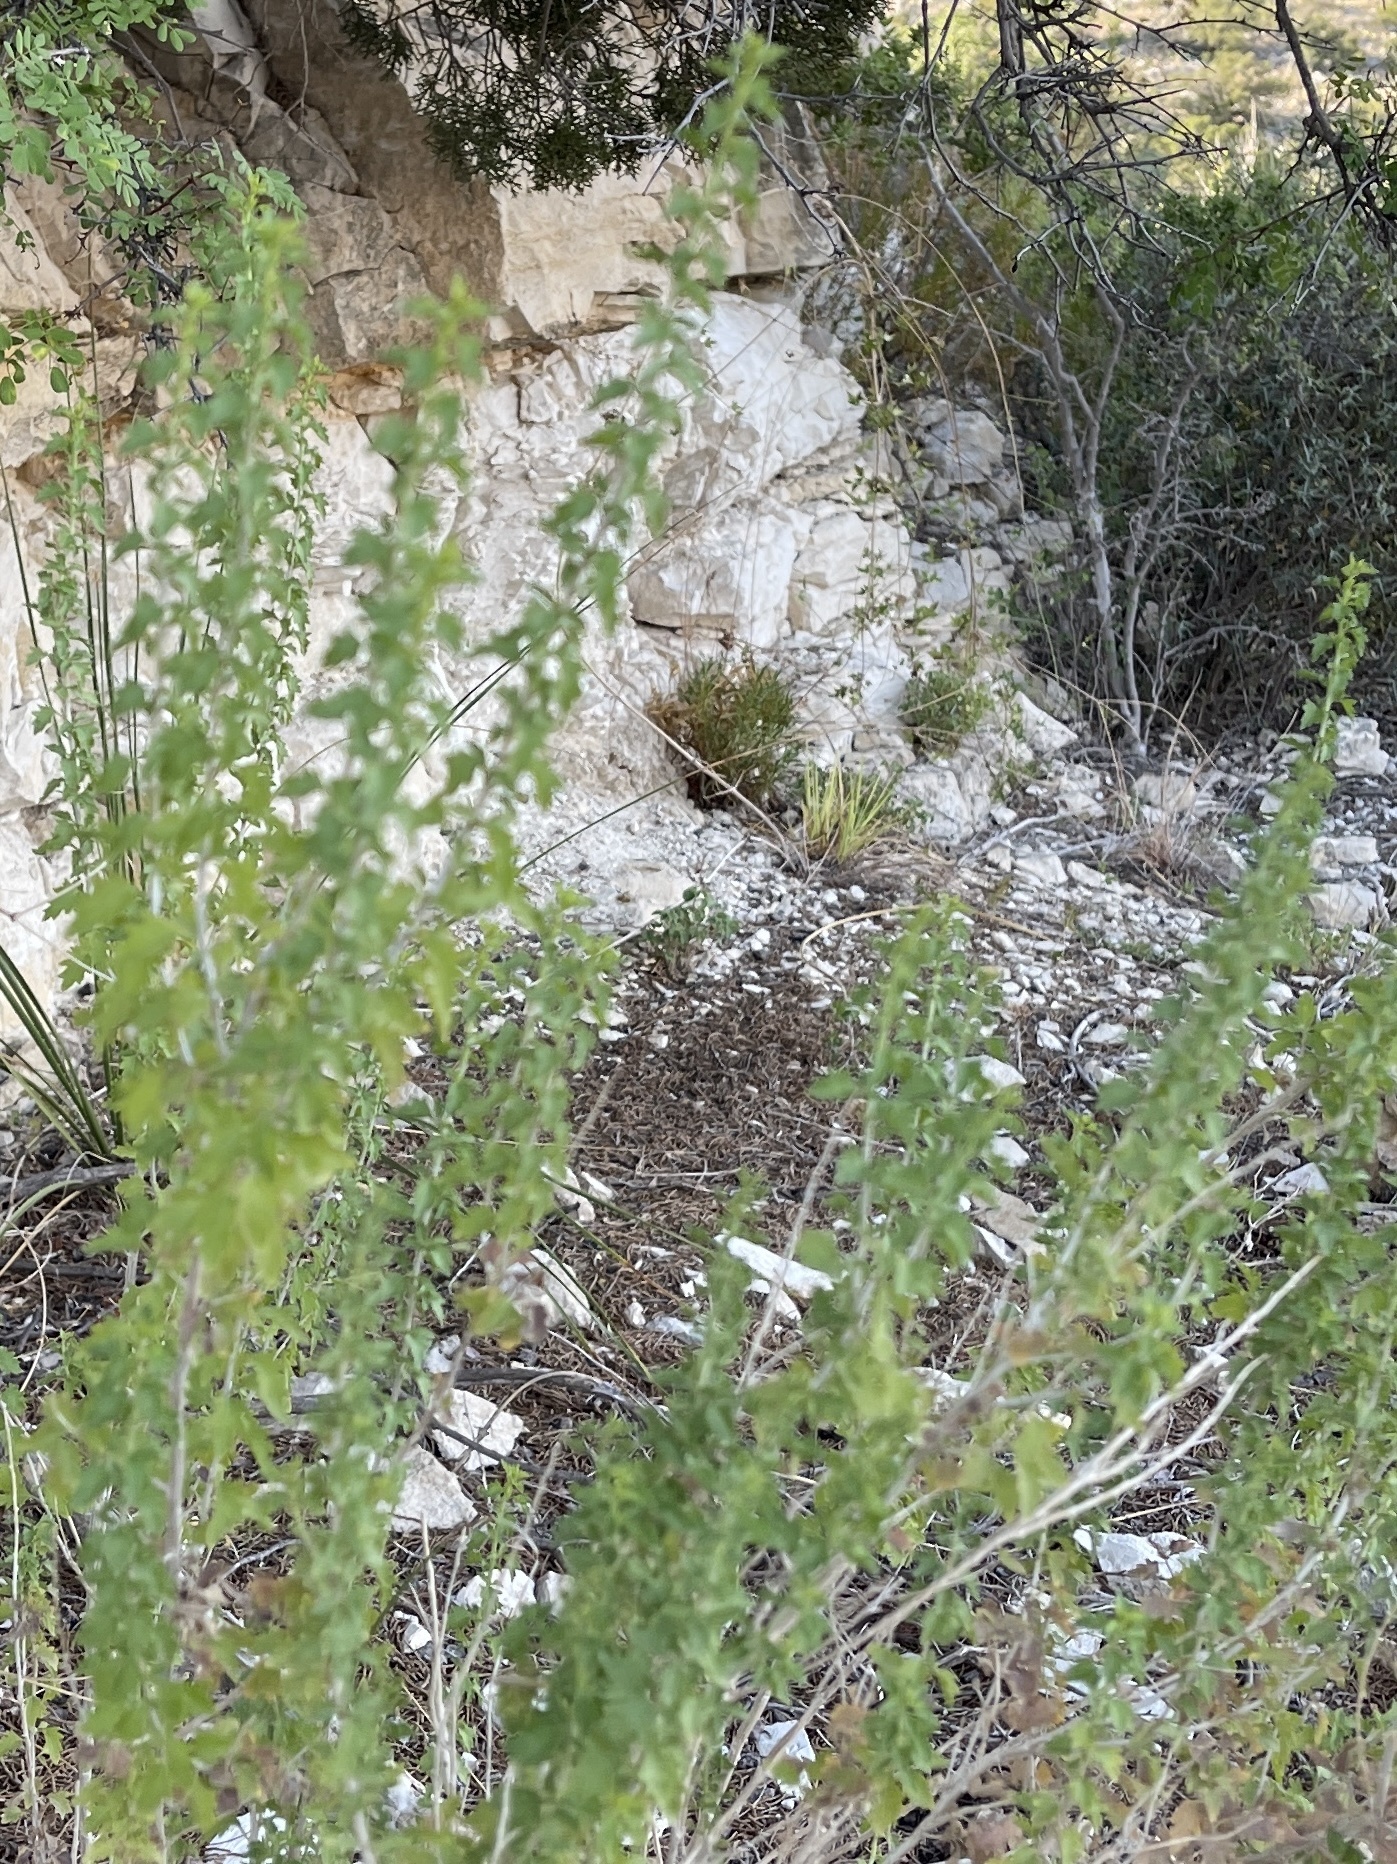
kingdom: Plantae
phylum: Tracheophyta
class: Magnoliopsida
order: Asterales
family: Asteraceae
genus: Brickellia
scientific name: Brickellia laciniata
